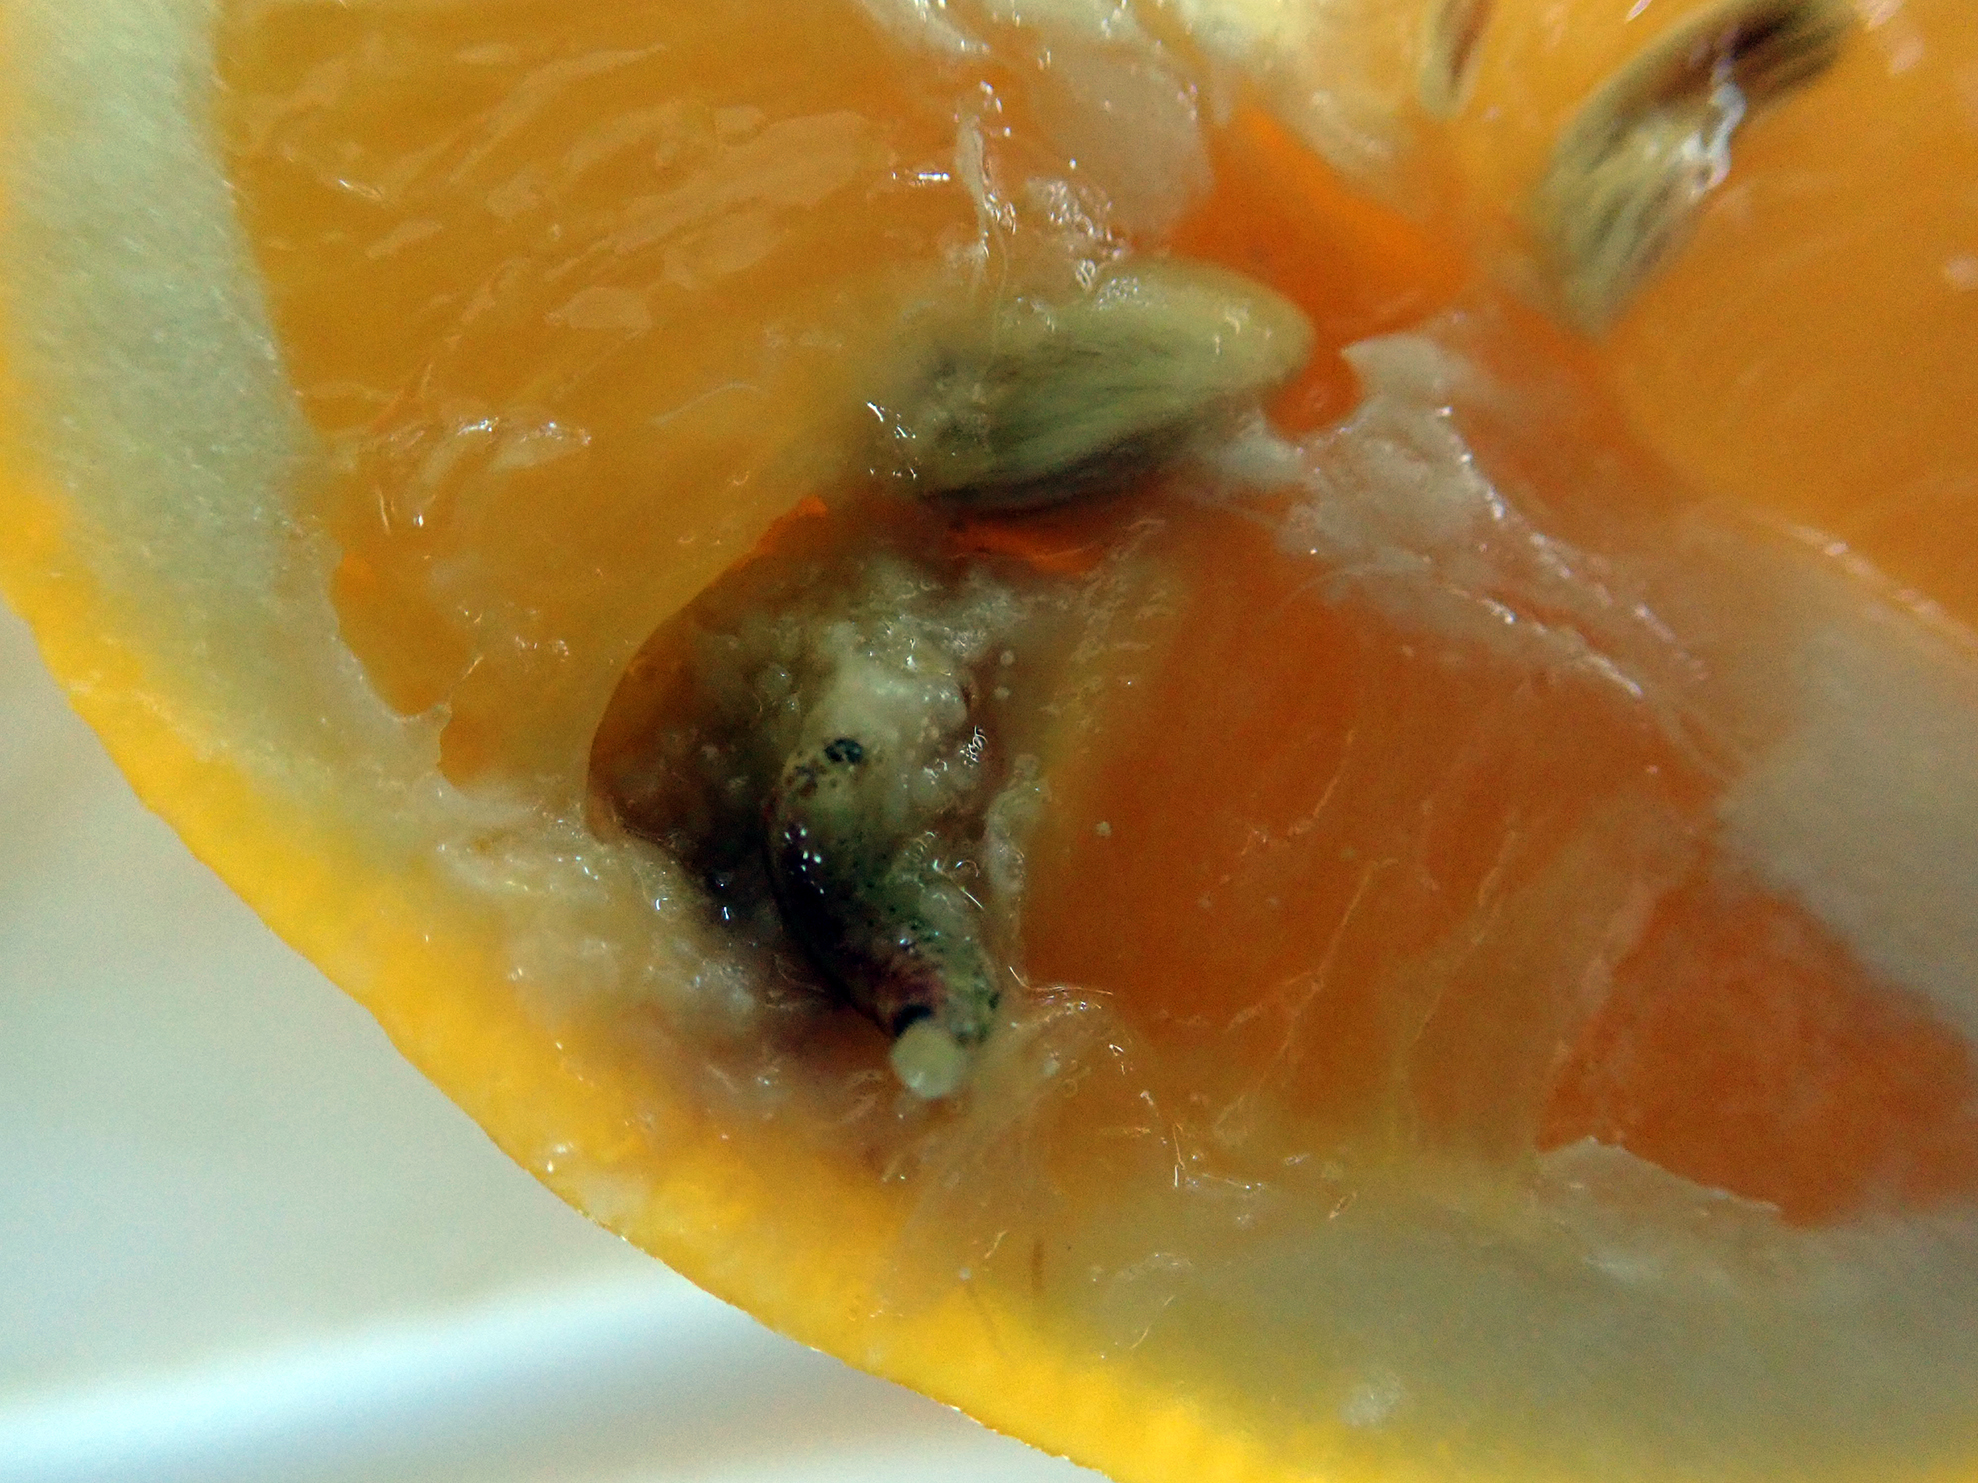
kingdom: Animalia
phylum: Arthropoda
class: Insecta
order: Lepidoptera
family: Carposinidae
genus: Coscinoptycha
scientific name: Coscinoptycha improbana
